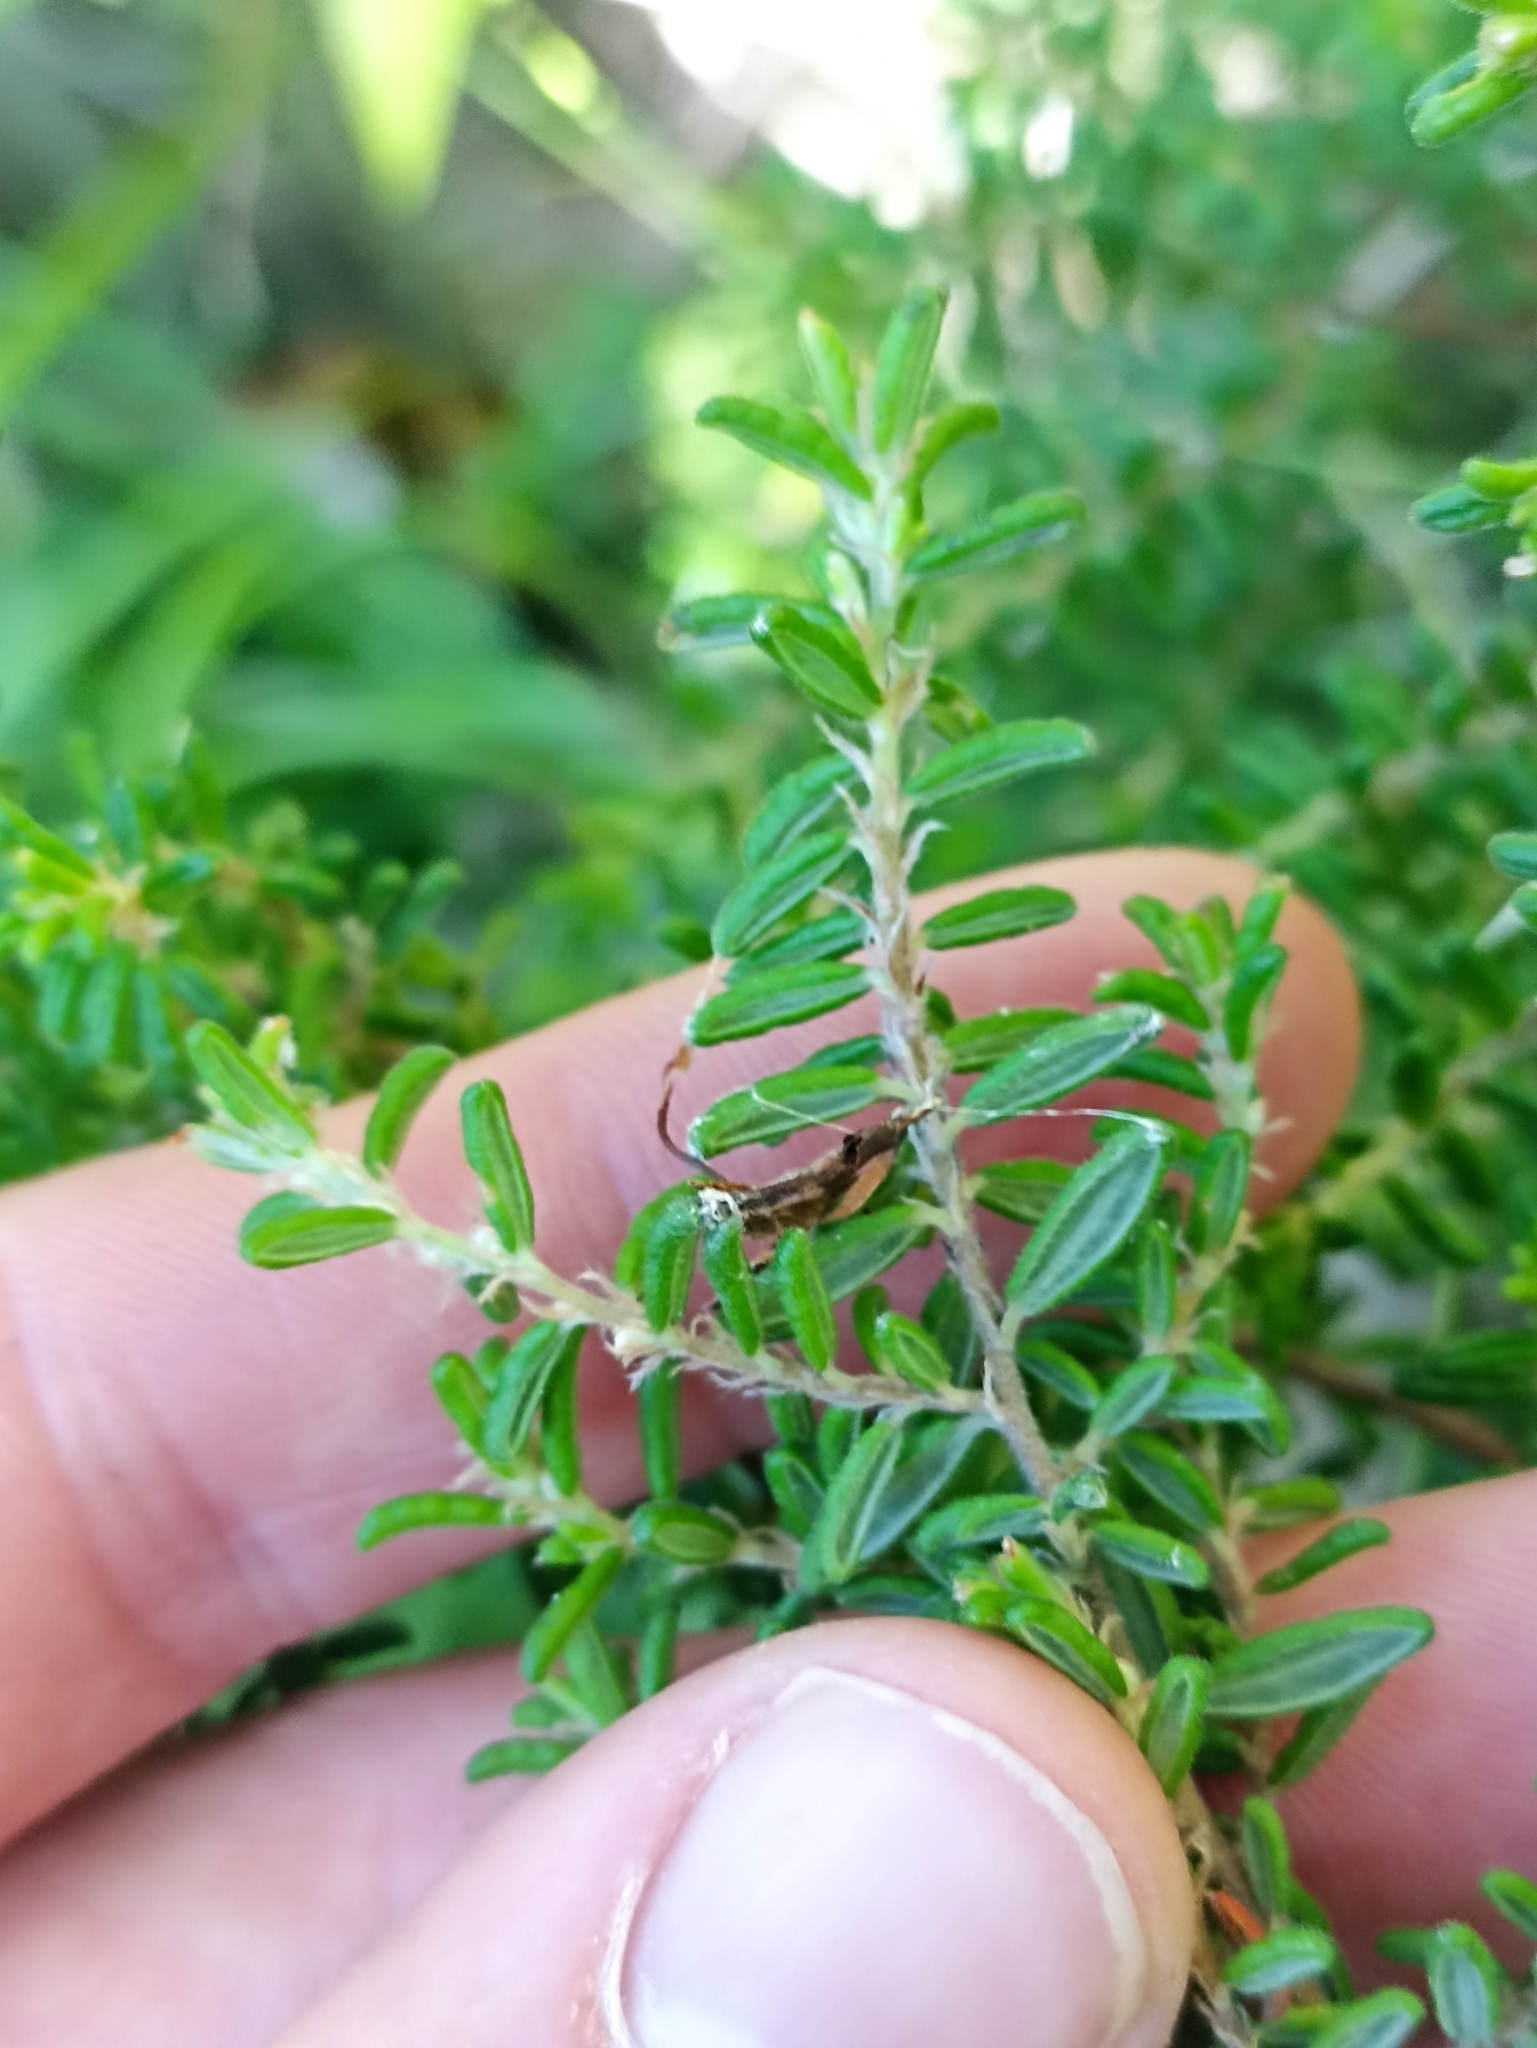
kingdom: Plantae
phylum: Tracheophyta
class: Magnoliopsida
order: Rosales
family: Rhamnaceae
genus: Pomaderris
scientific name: Pomaderris amoena
